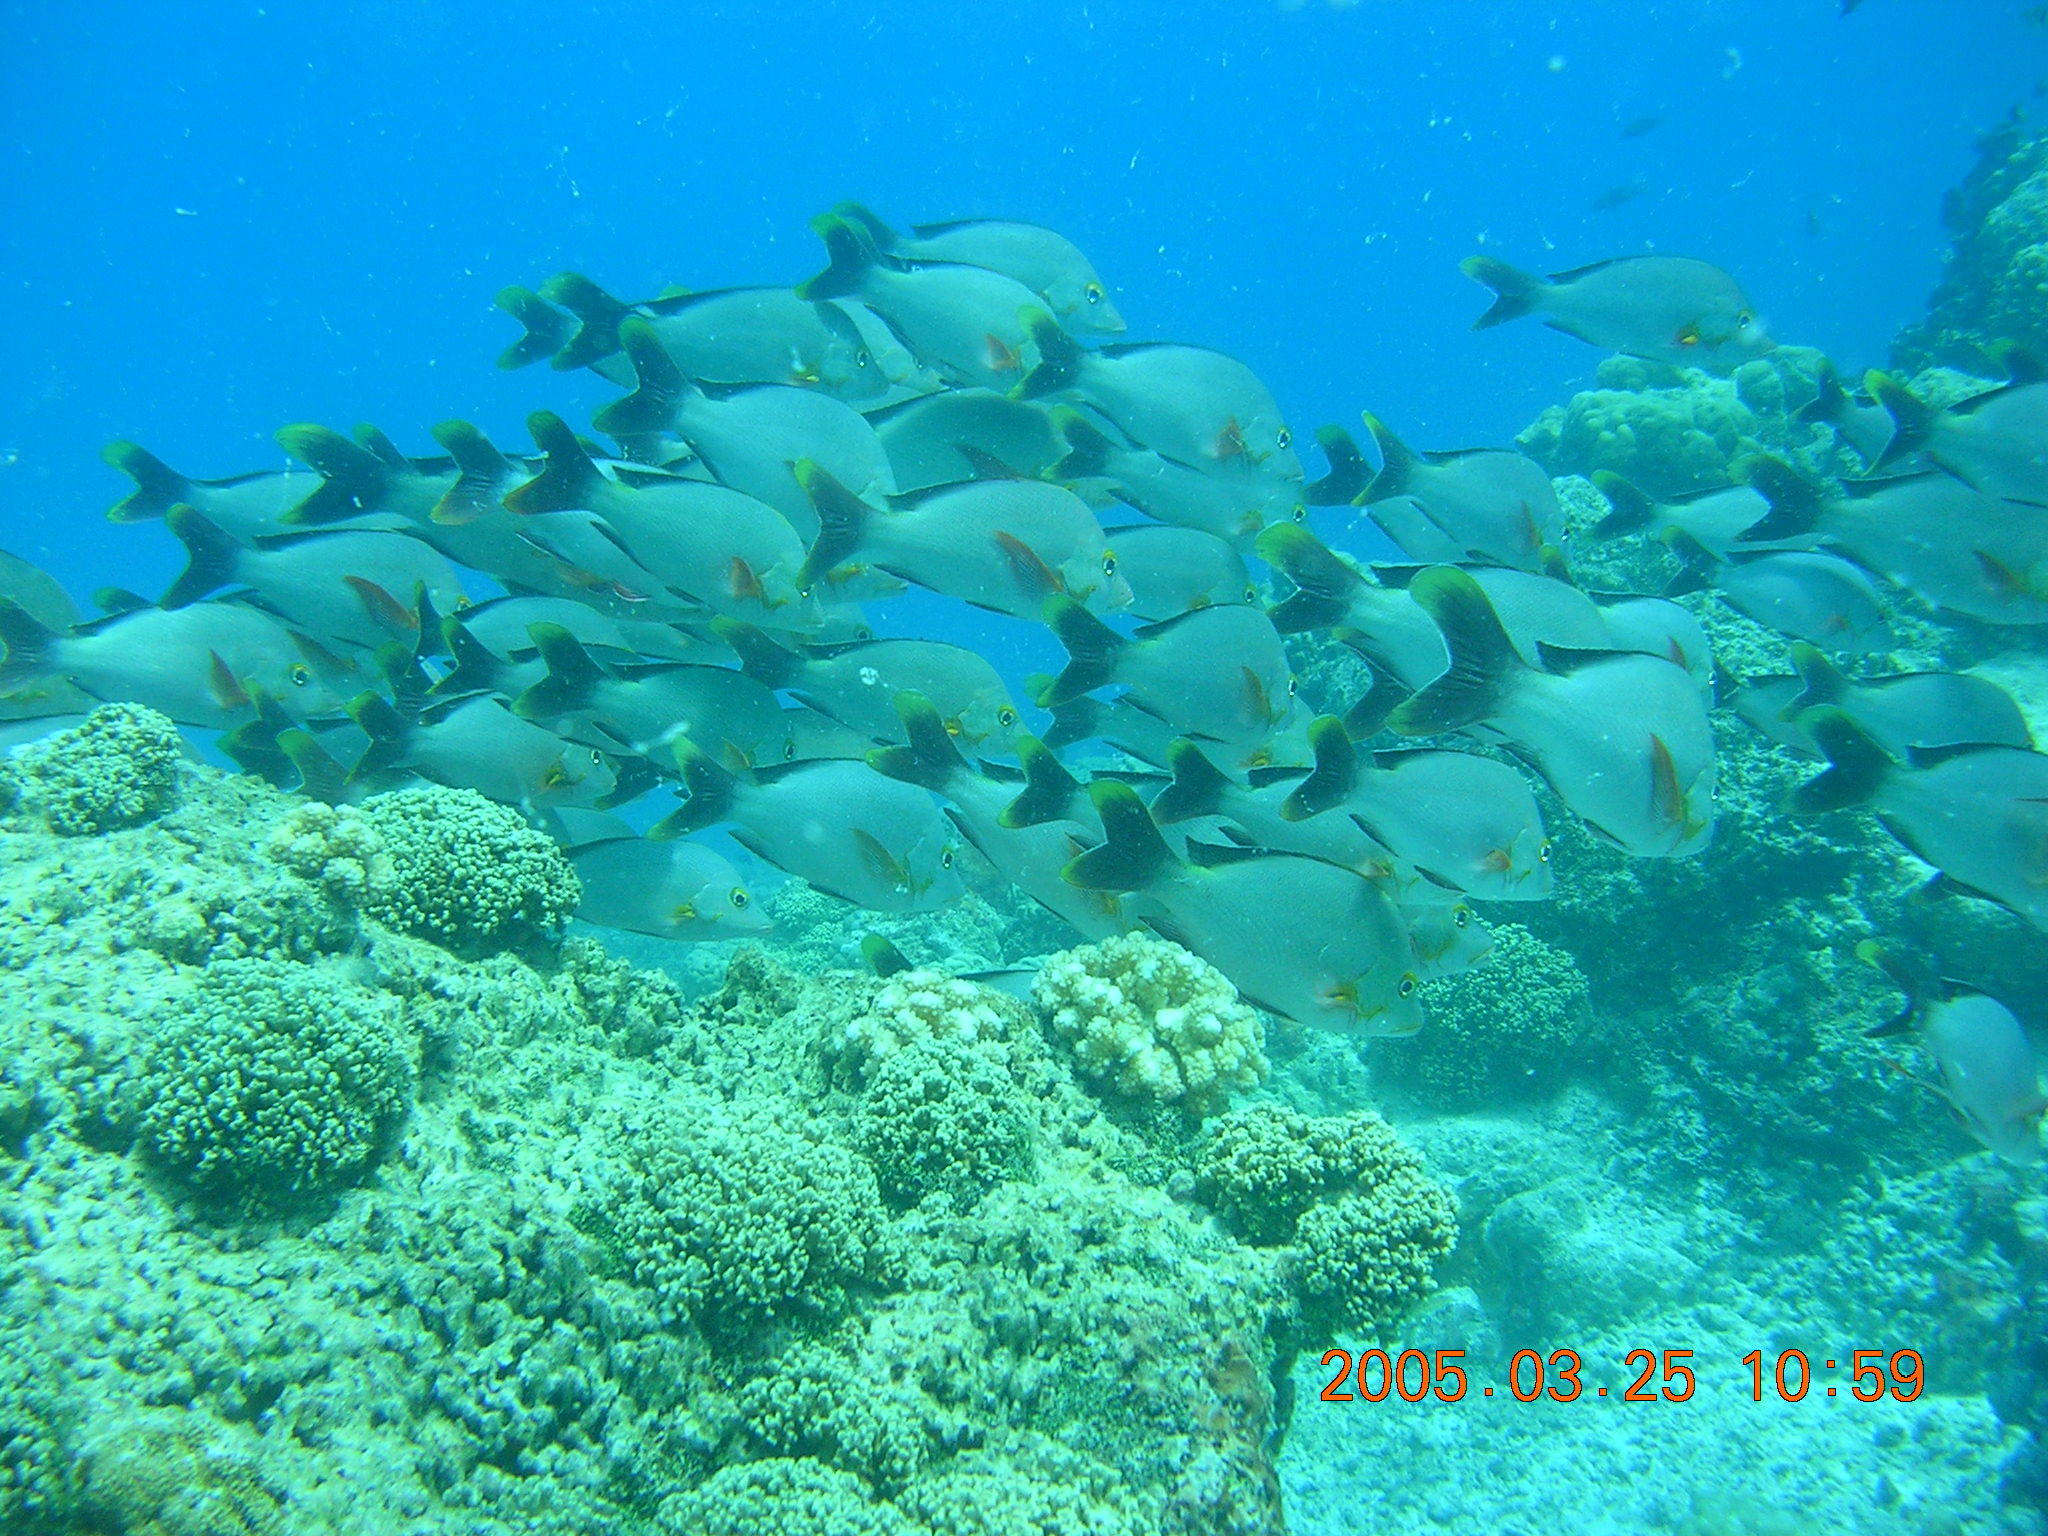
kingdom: Animalia
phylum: Chordata
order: Perciformes
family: Lutjanidae
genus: Lutjanus
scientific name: Lutjanus gibbus
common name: Humpback snapper
